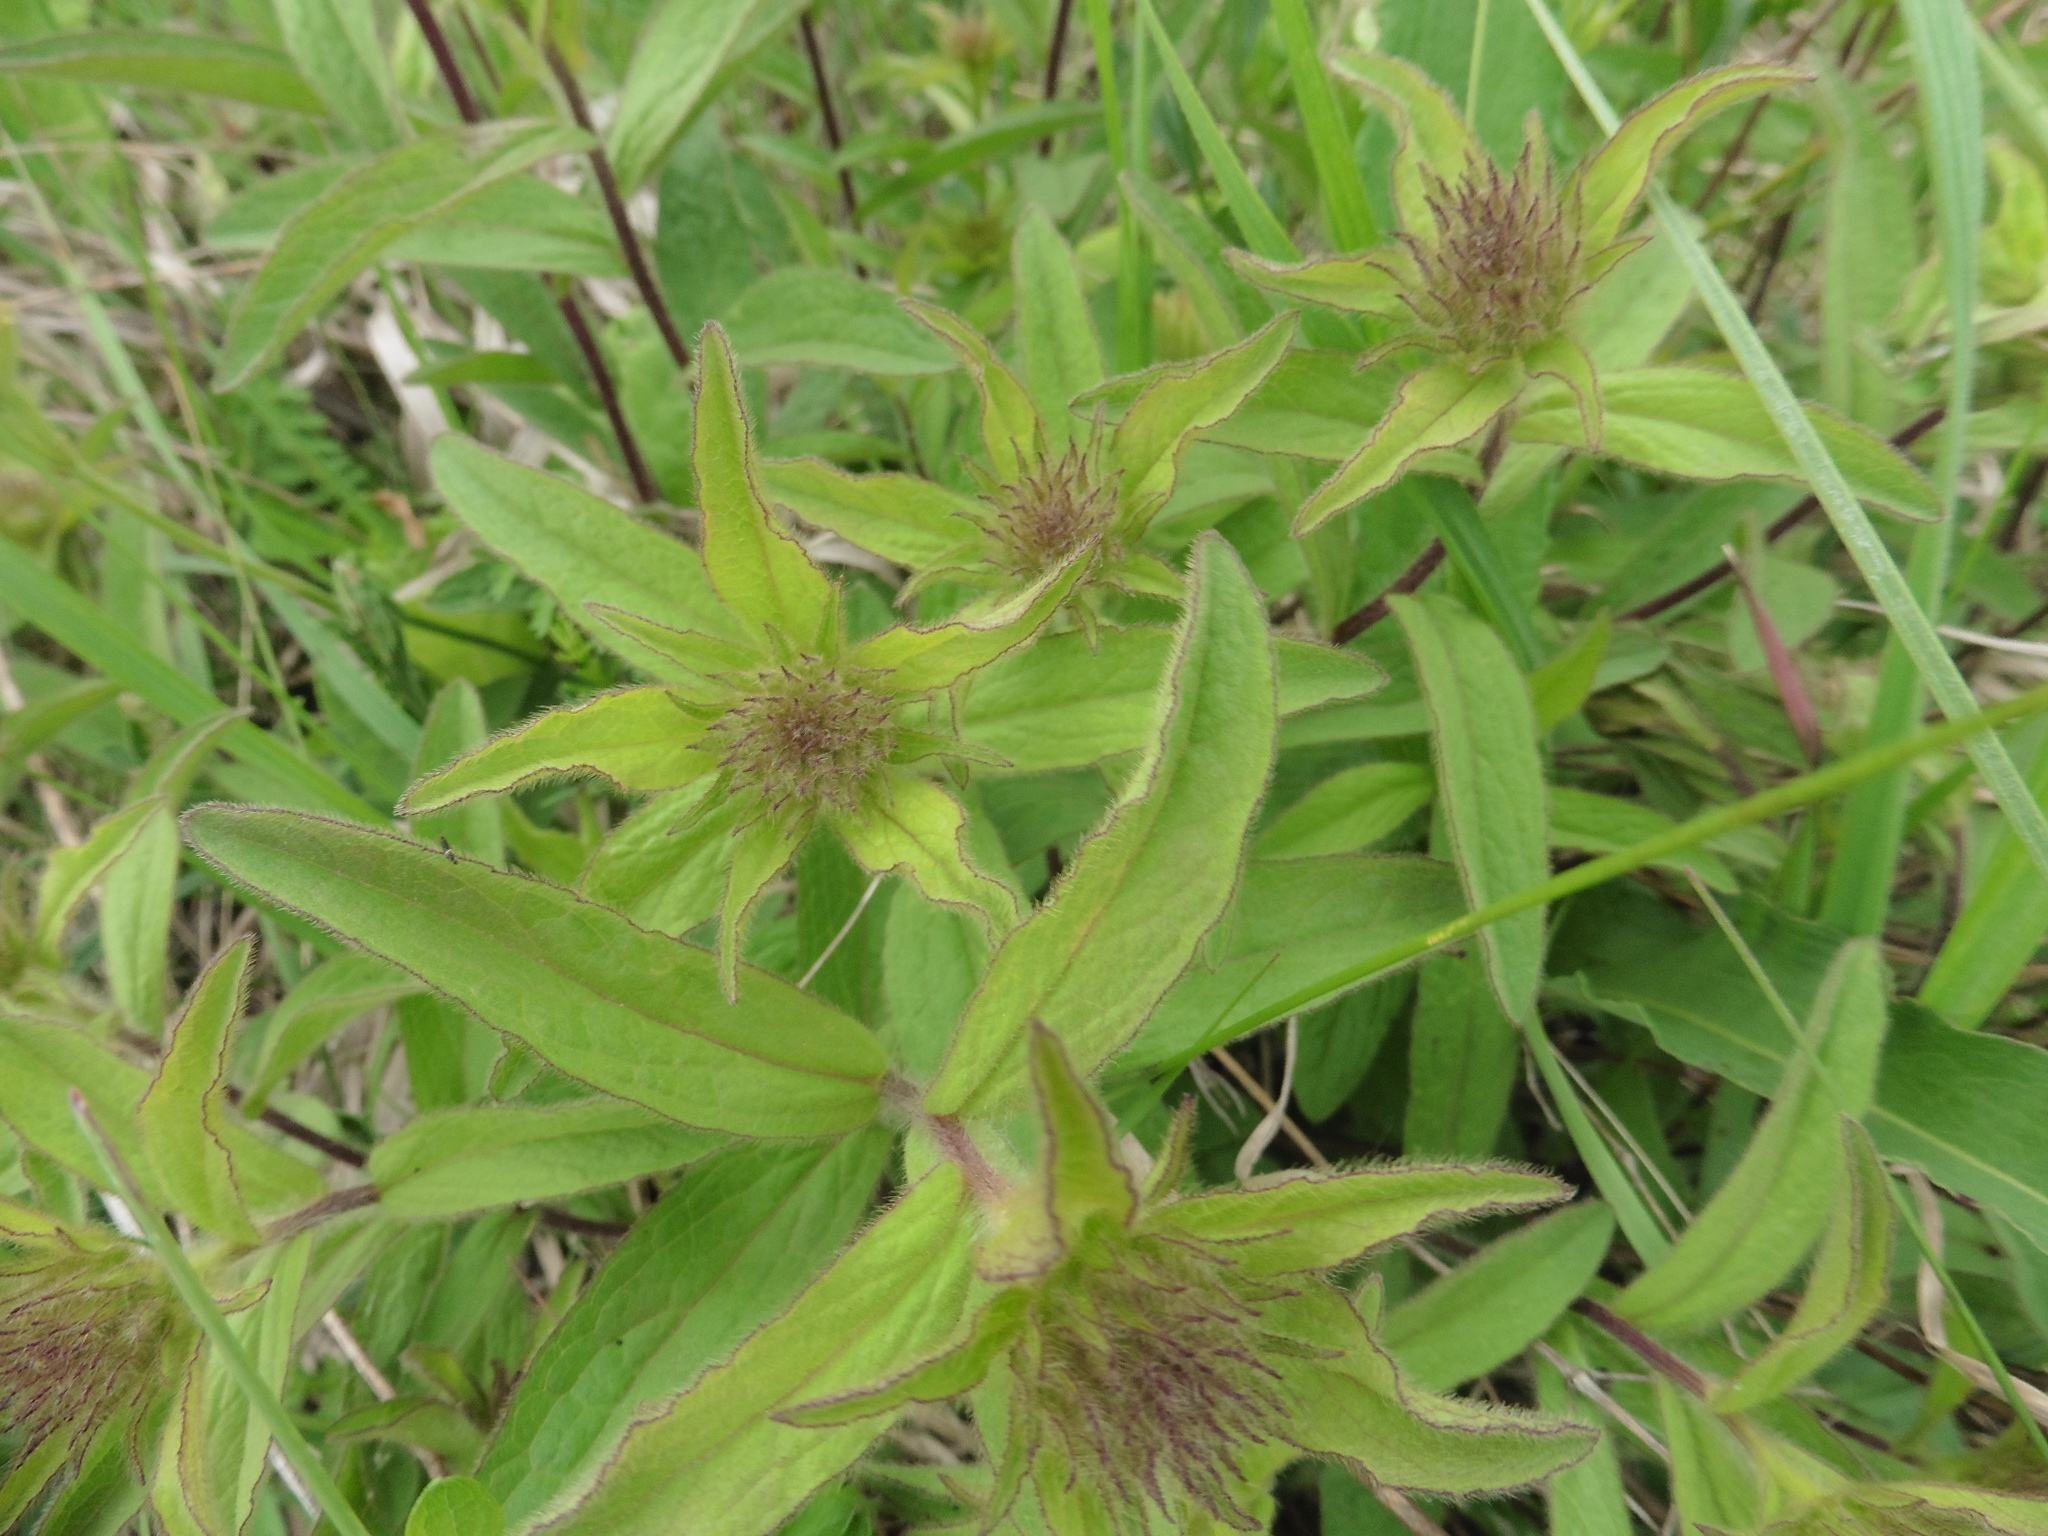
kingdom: Plantae
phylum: Tracheophyta
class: Magnoliopsida
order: Asterales
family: Asteraceae
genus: Pentanema
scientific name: Pentanema hirtum
